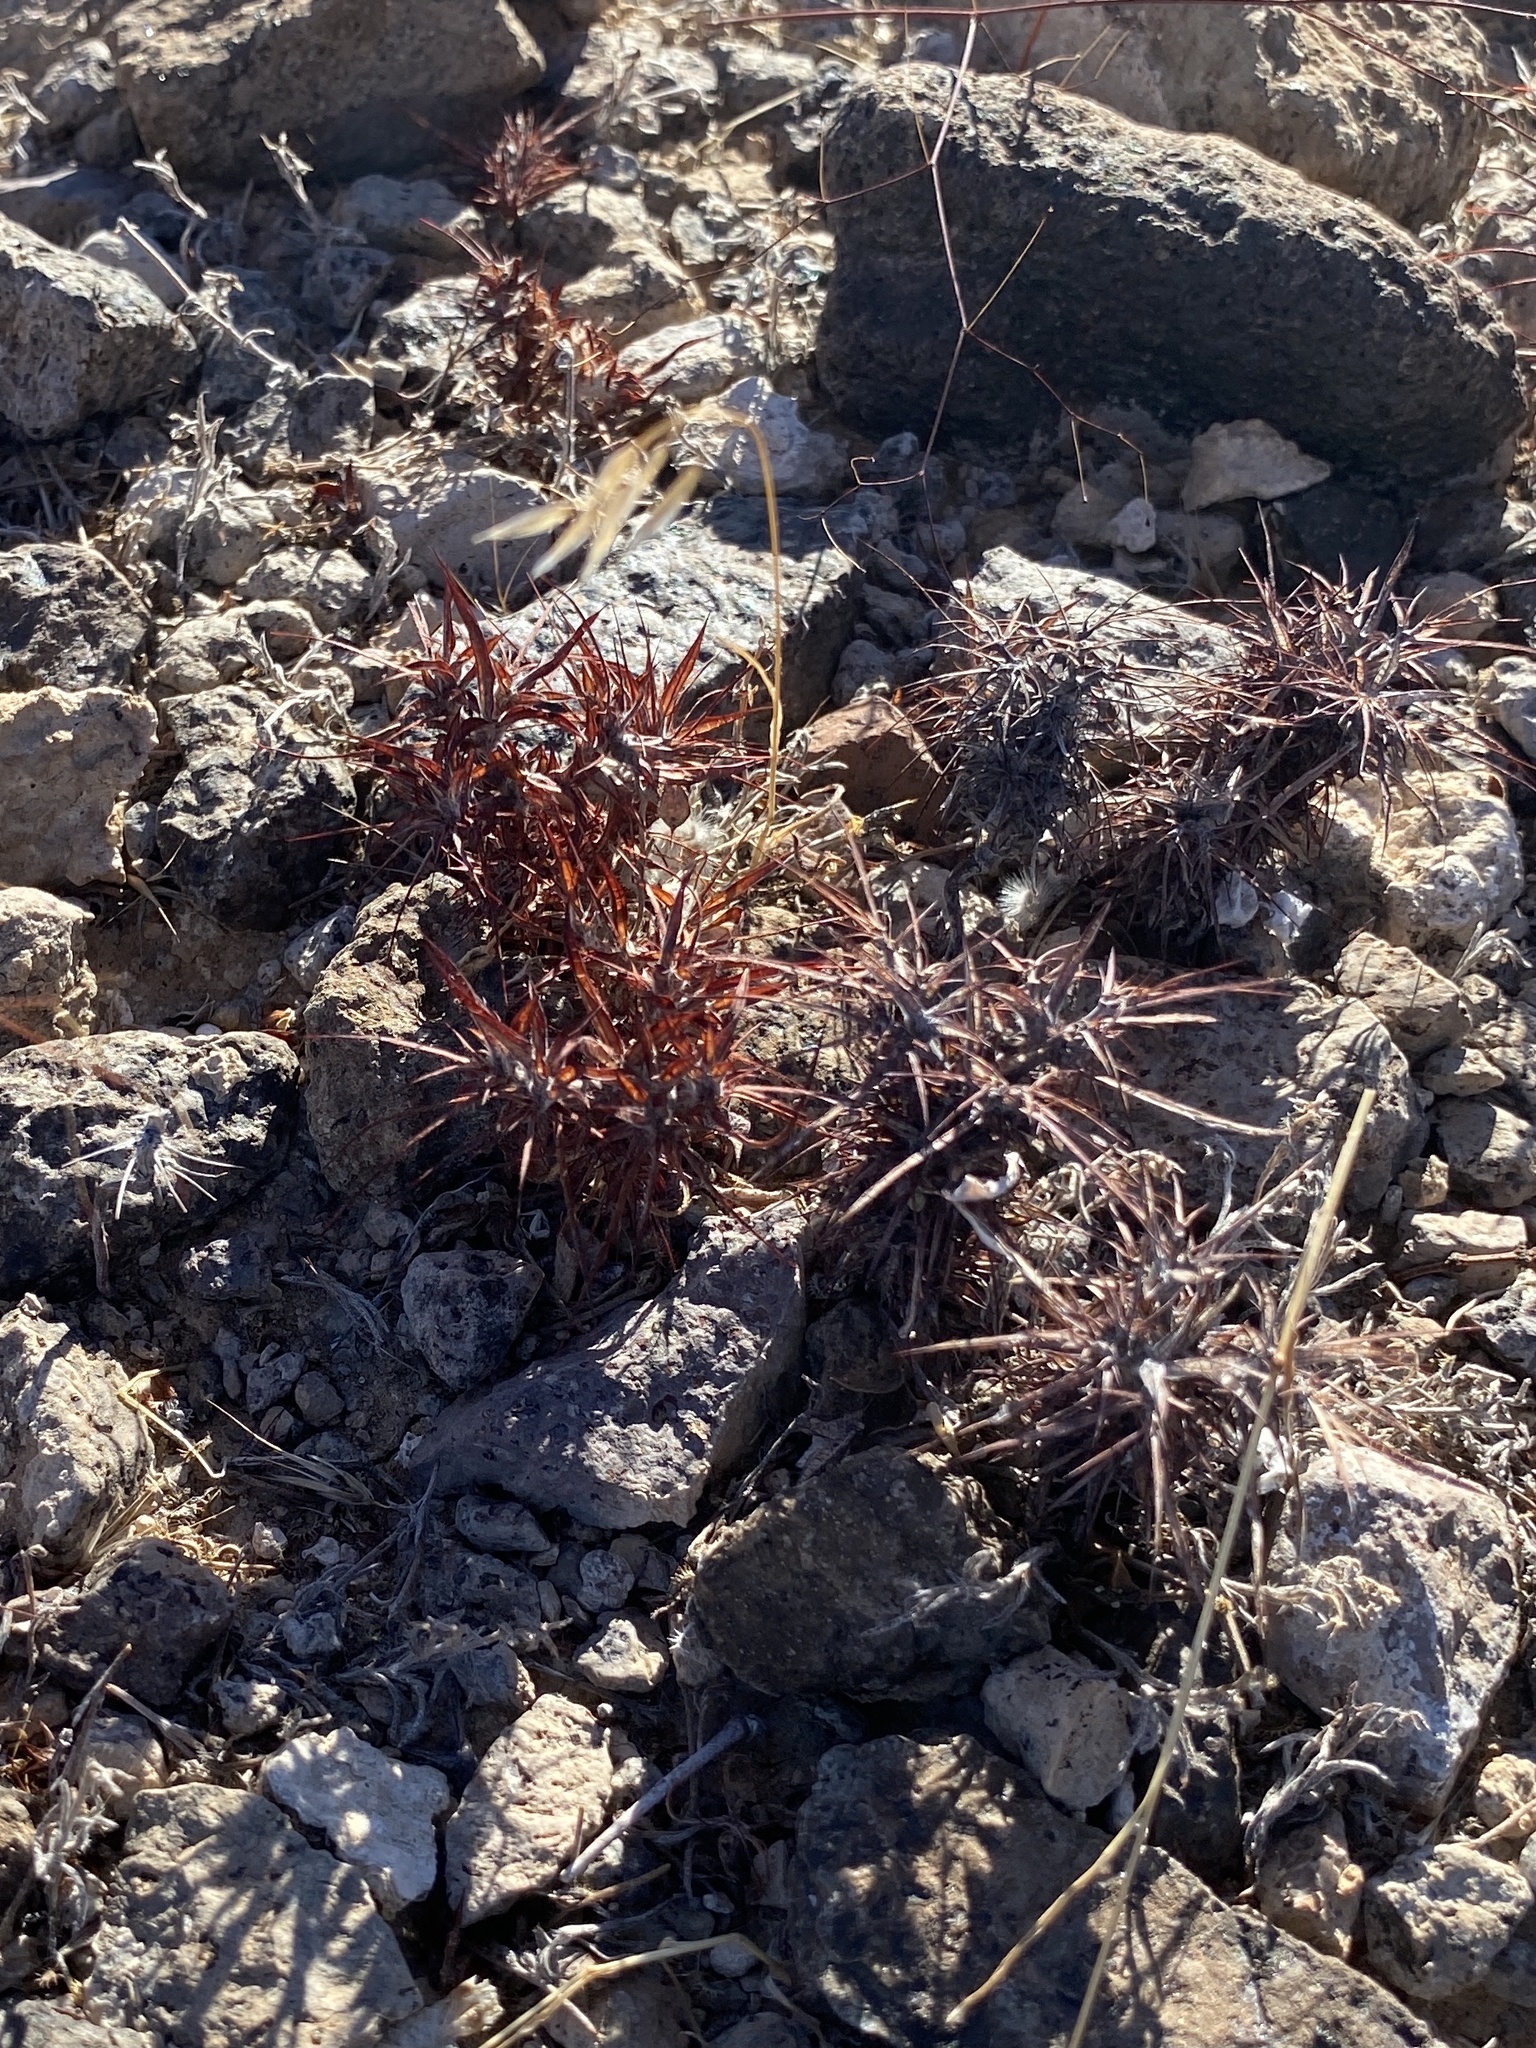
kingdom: Plantae
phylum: Tracheophyta
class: Magnoliopsida
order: Caryophyllales
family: Polygonaceae
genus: Chorizanthe
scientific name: Chorizanthe rigida
